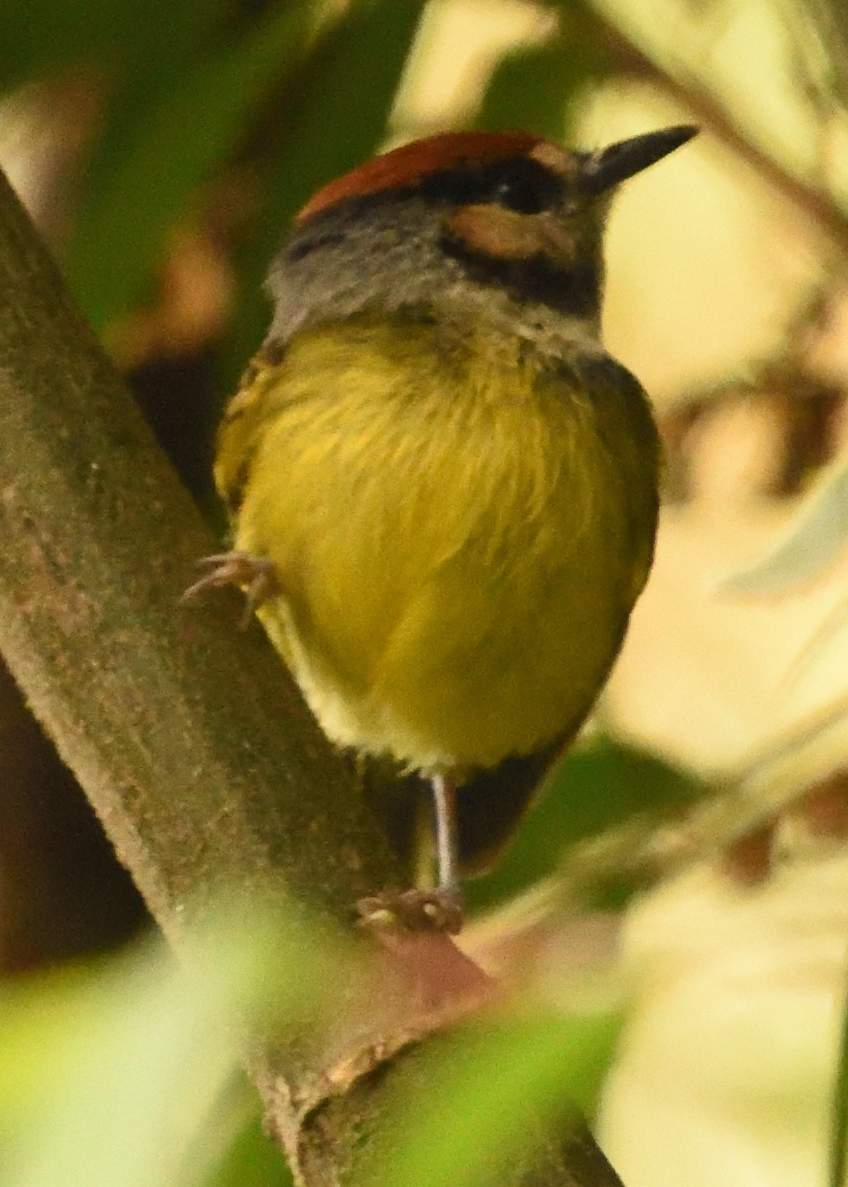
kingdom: Animalia
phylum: Chordata
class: Aves
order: Passeriformes
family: Tyrannidae
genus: Poecilotriccus
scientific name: Poecilotriccus ruficeps
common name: Rufous-crowned tody-flycatcher
